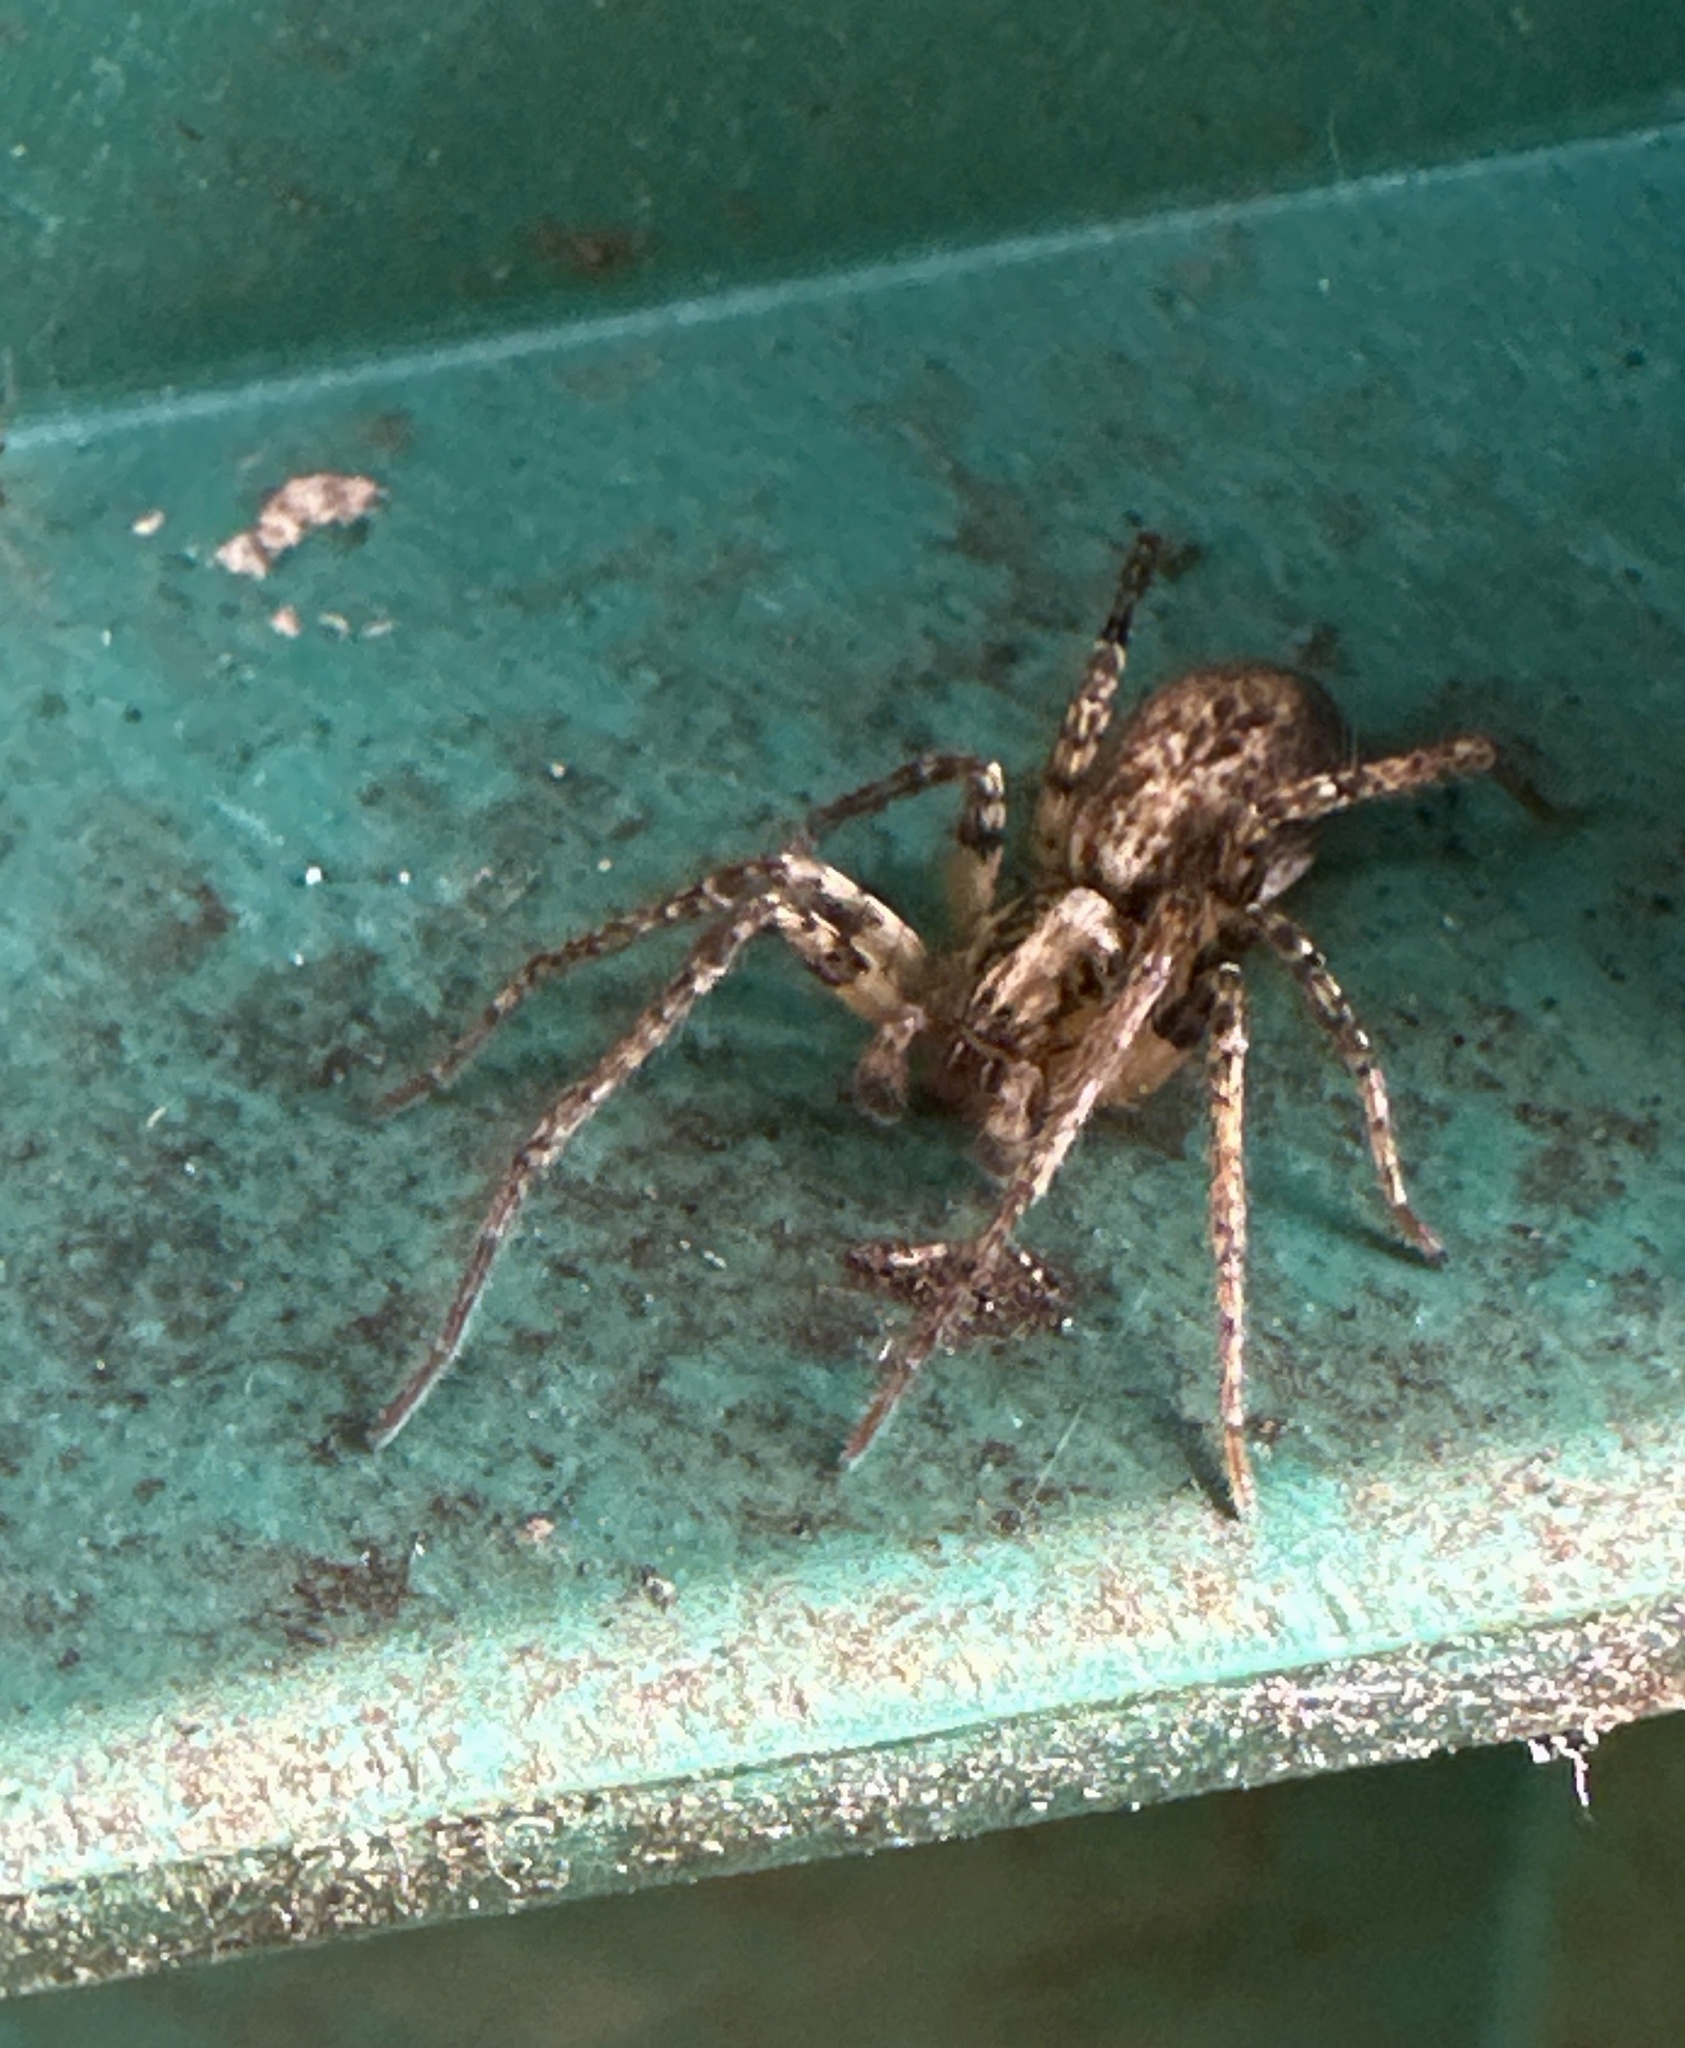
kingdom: Animalia
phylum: Arthropoda
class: Arachnida
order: Araneae
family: Anyphaenidae
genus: Anyphaena
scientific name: Anyphaena accentuata
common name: Buzzing spider
